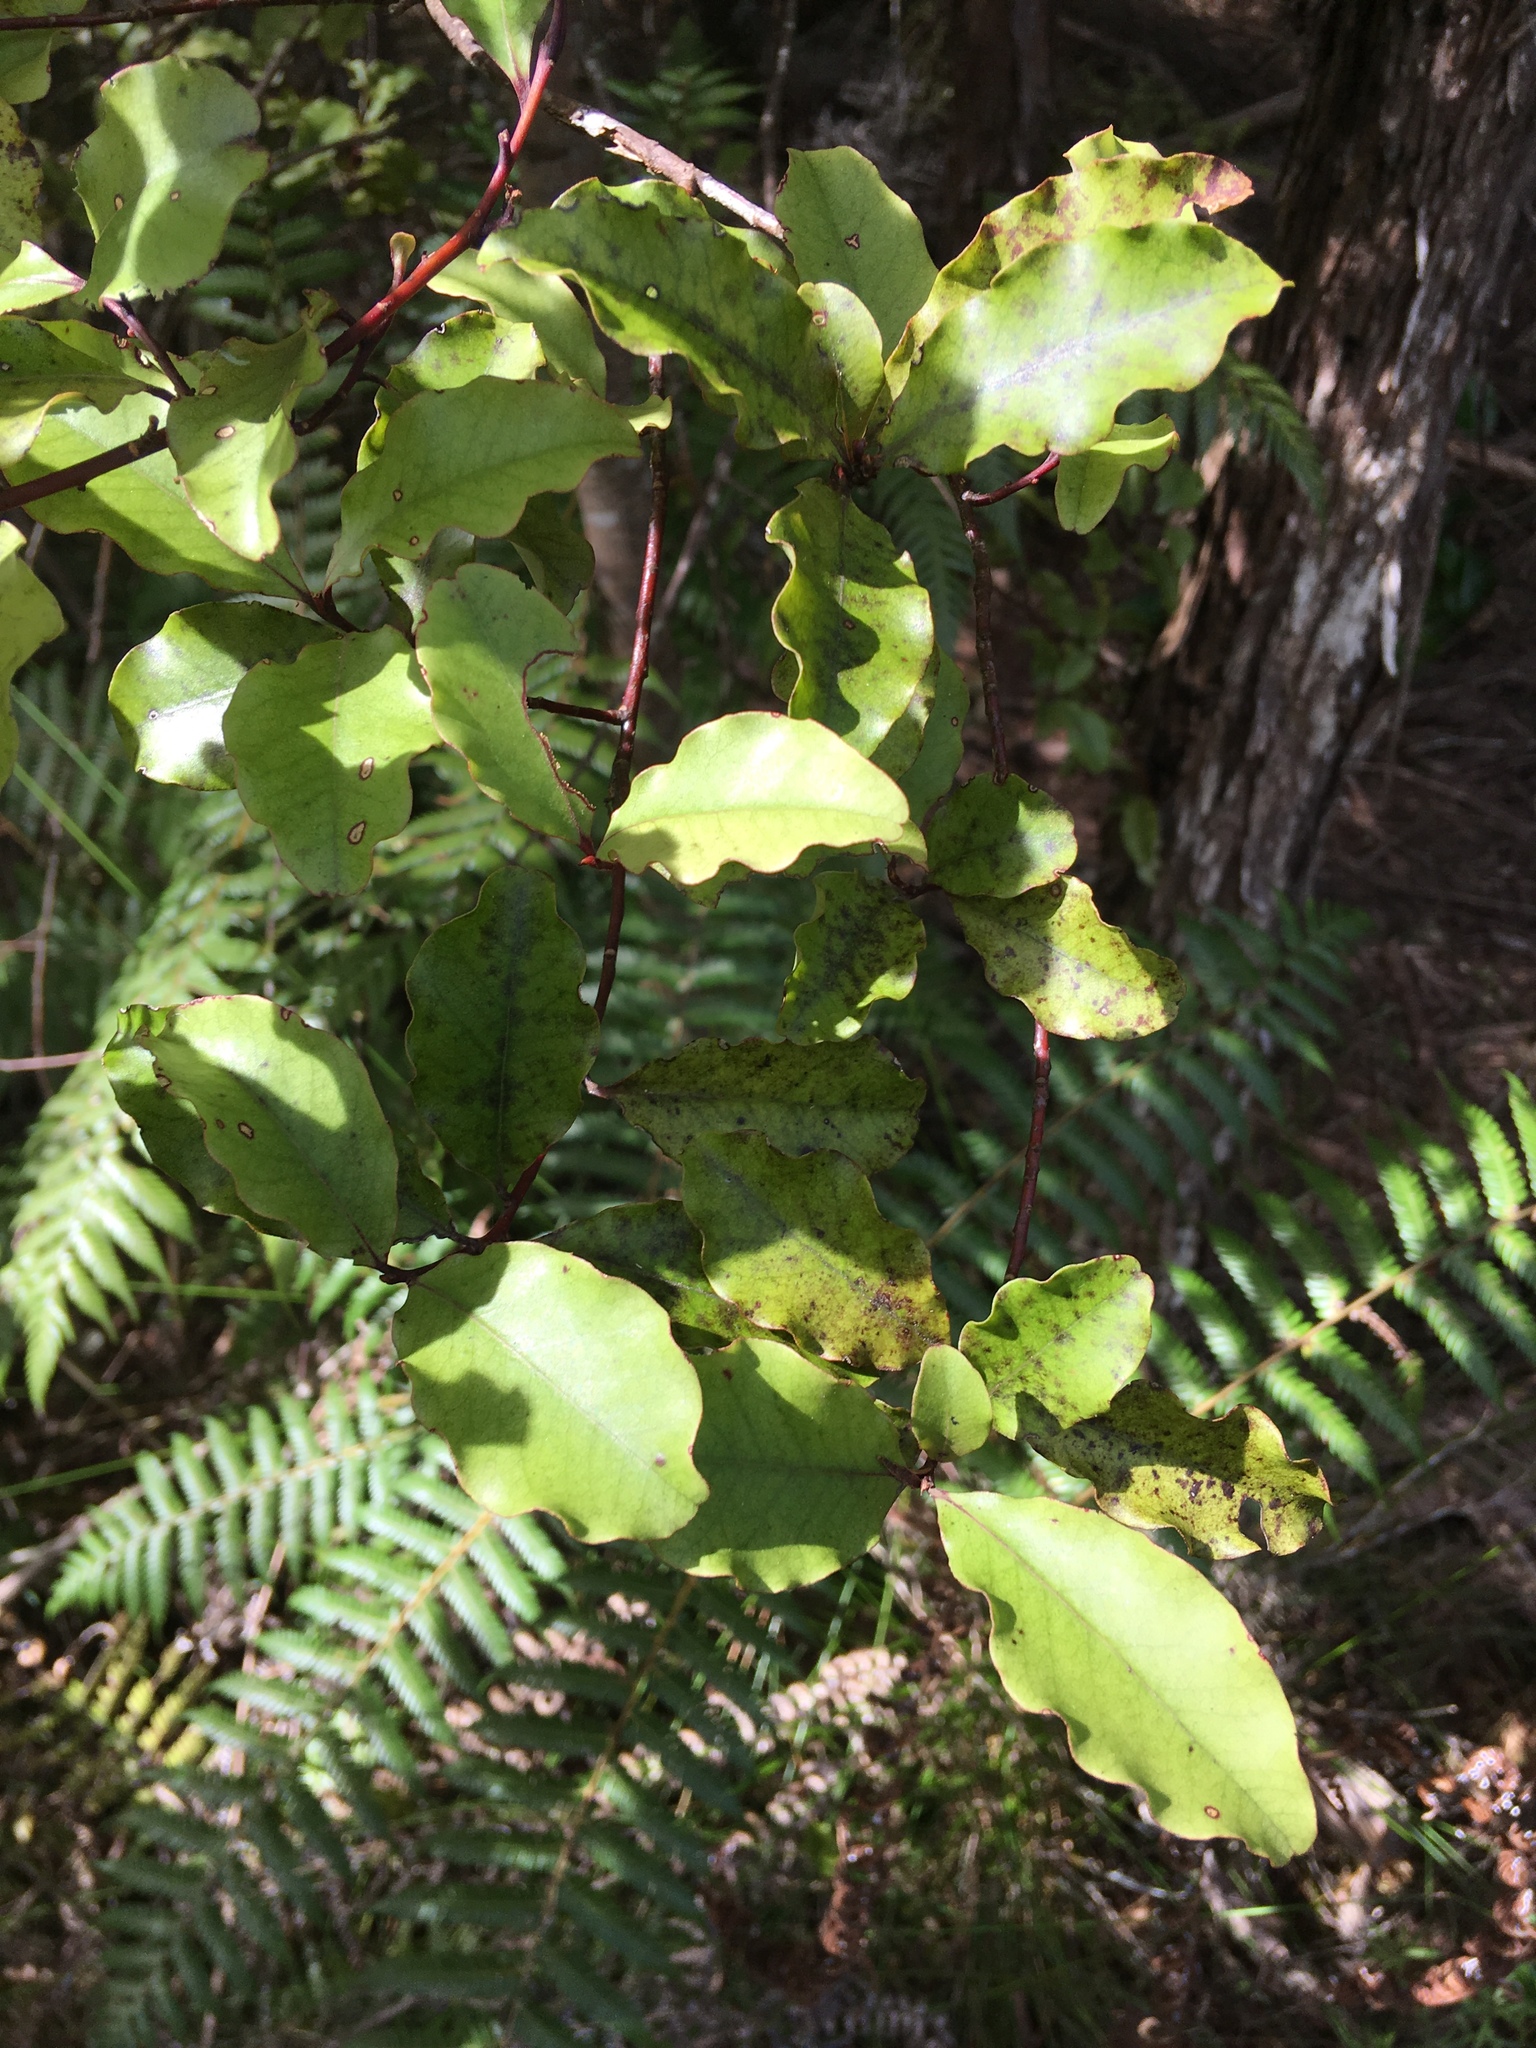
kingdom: Plantae
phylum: Tracheophyta
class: Magnoliopsida
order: Ericales
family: Primulaceae
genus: Myrsine
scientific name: Myrsine australis
